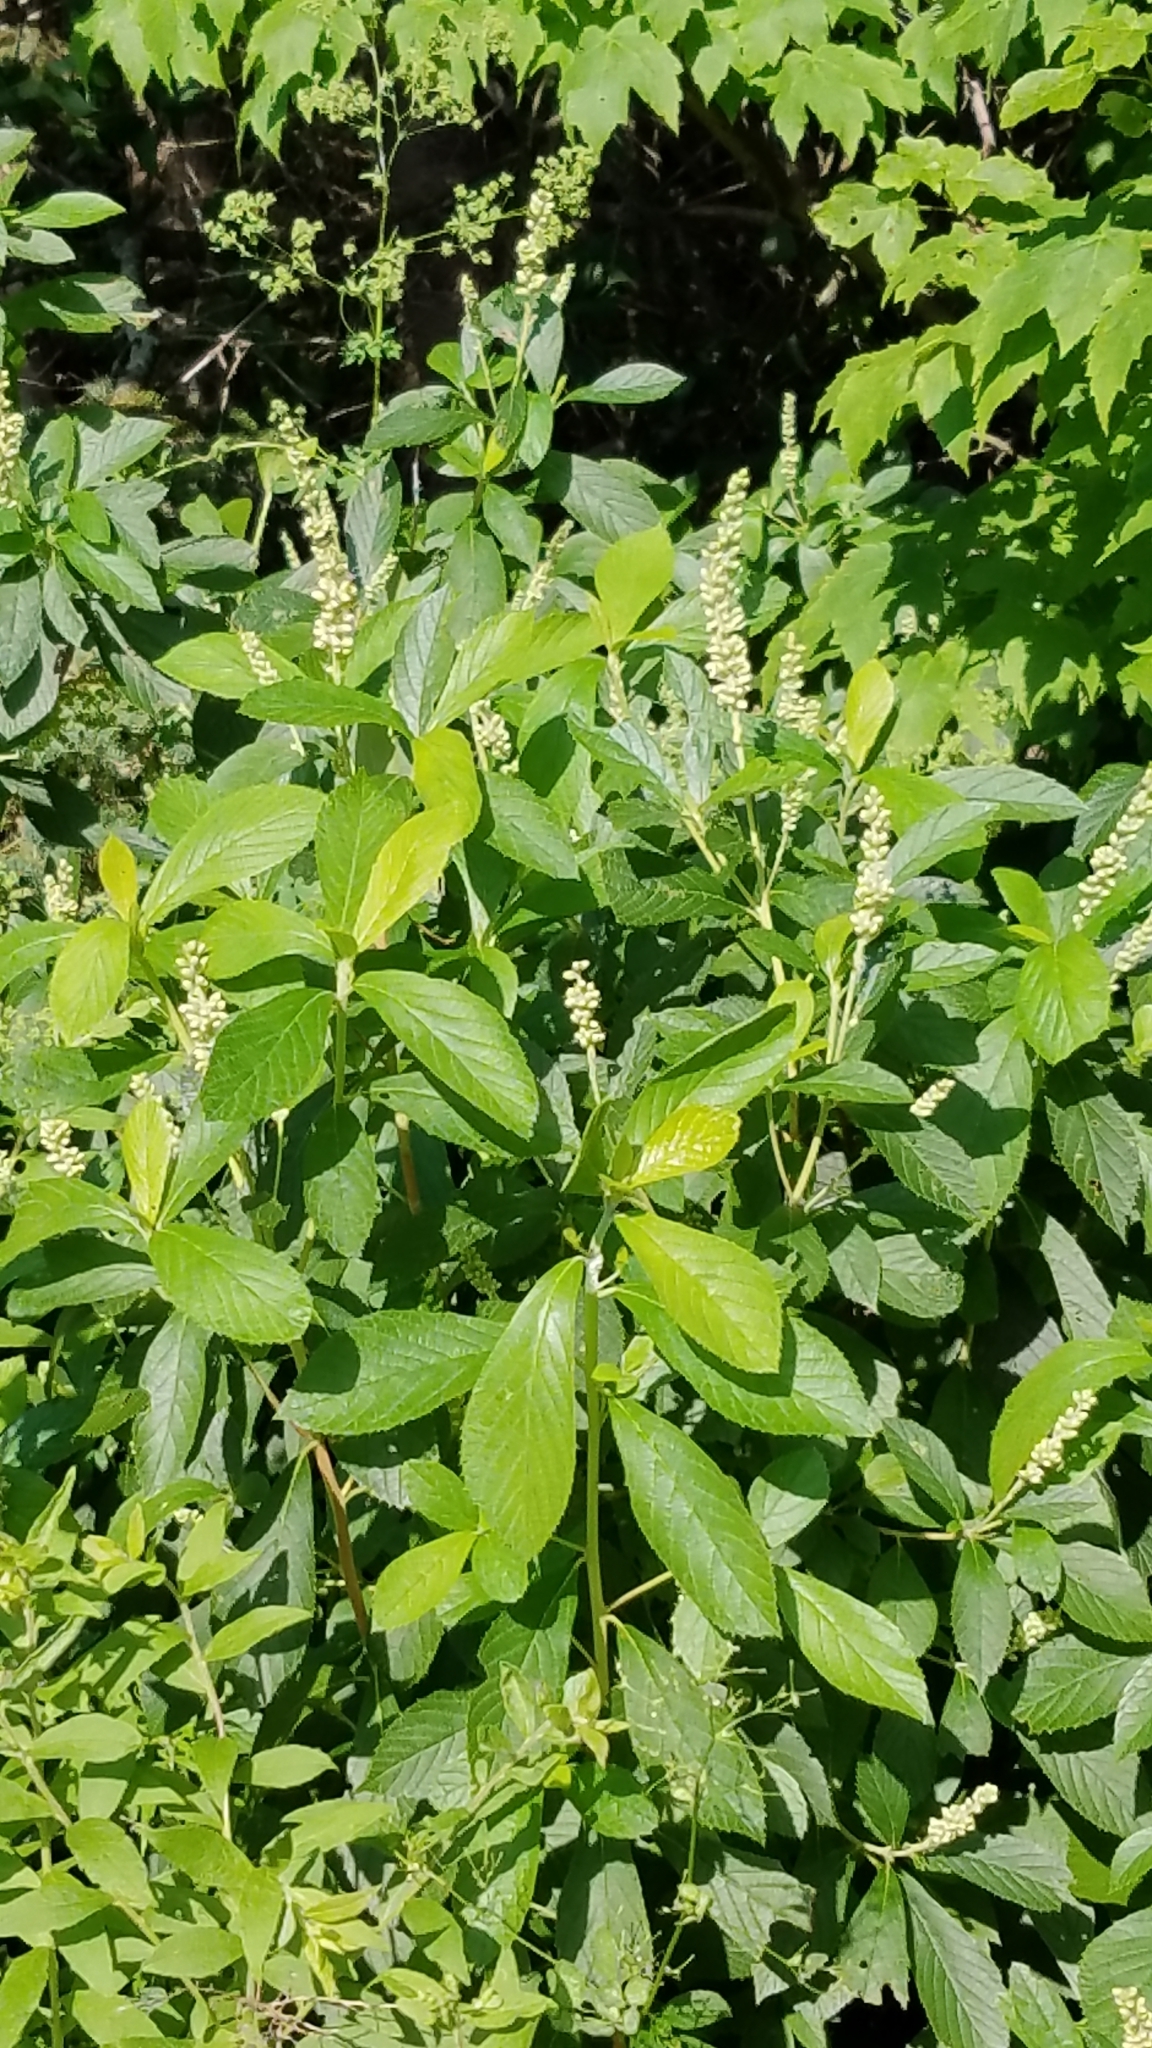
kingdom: Plantae
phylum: Tracheophyta
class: Magnoliopsida
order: Ericales
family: Clethraceae
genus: Clethra
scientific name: Clethra alnifolia
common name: Sweet pepperbush
